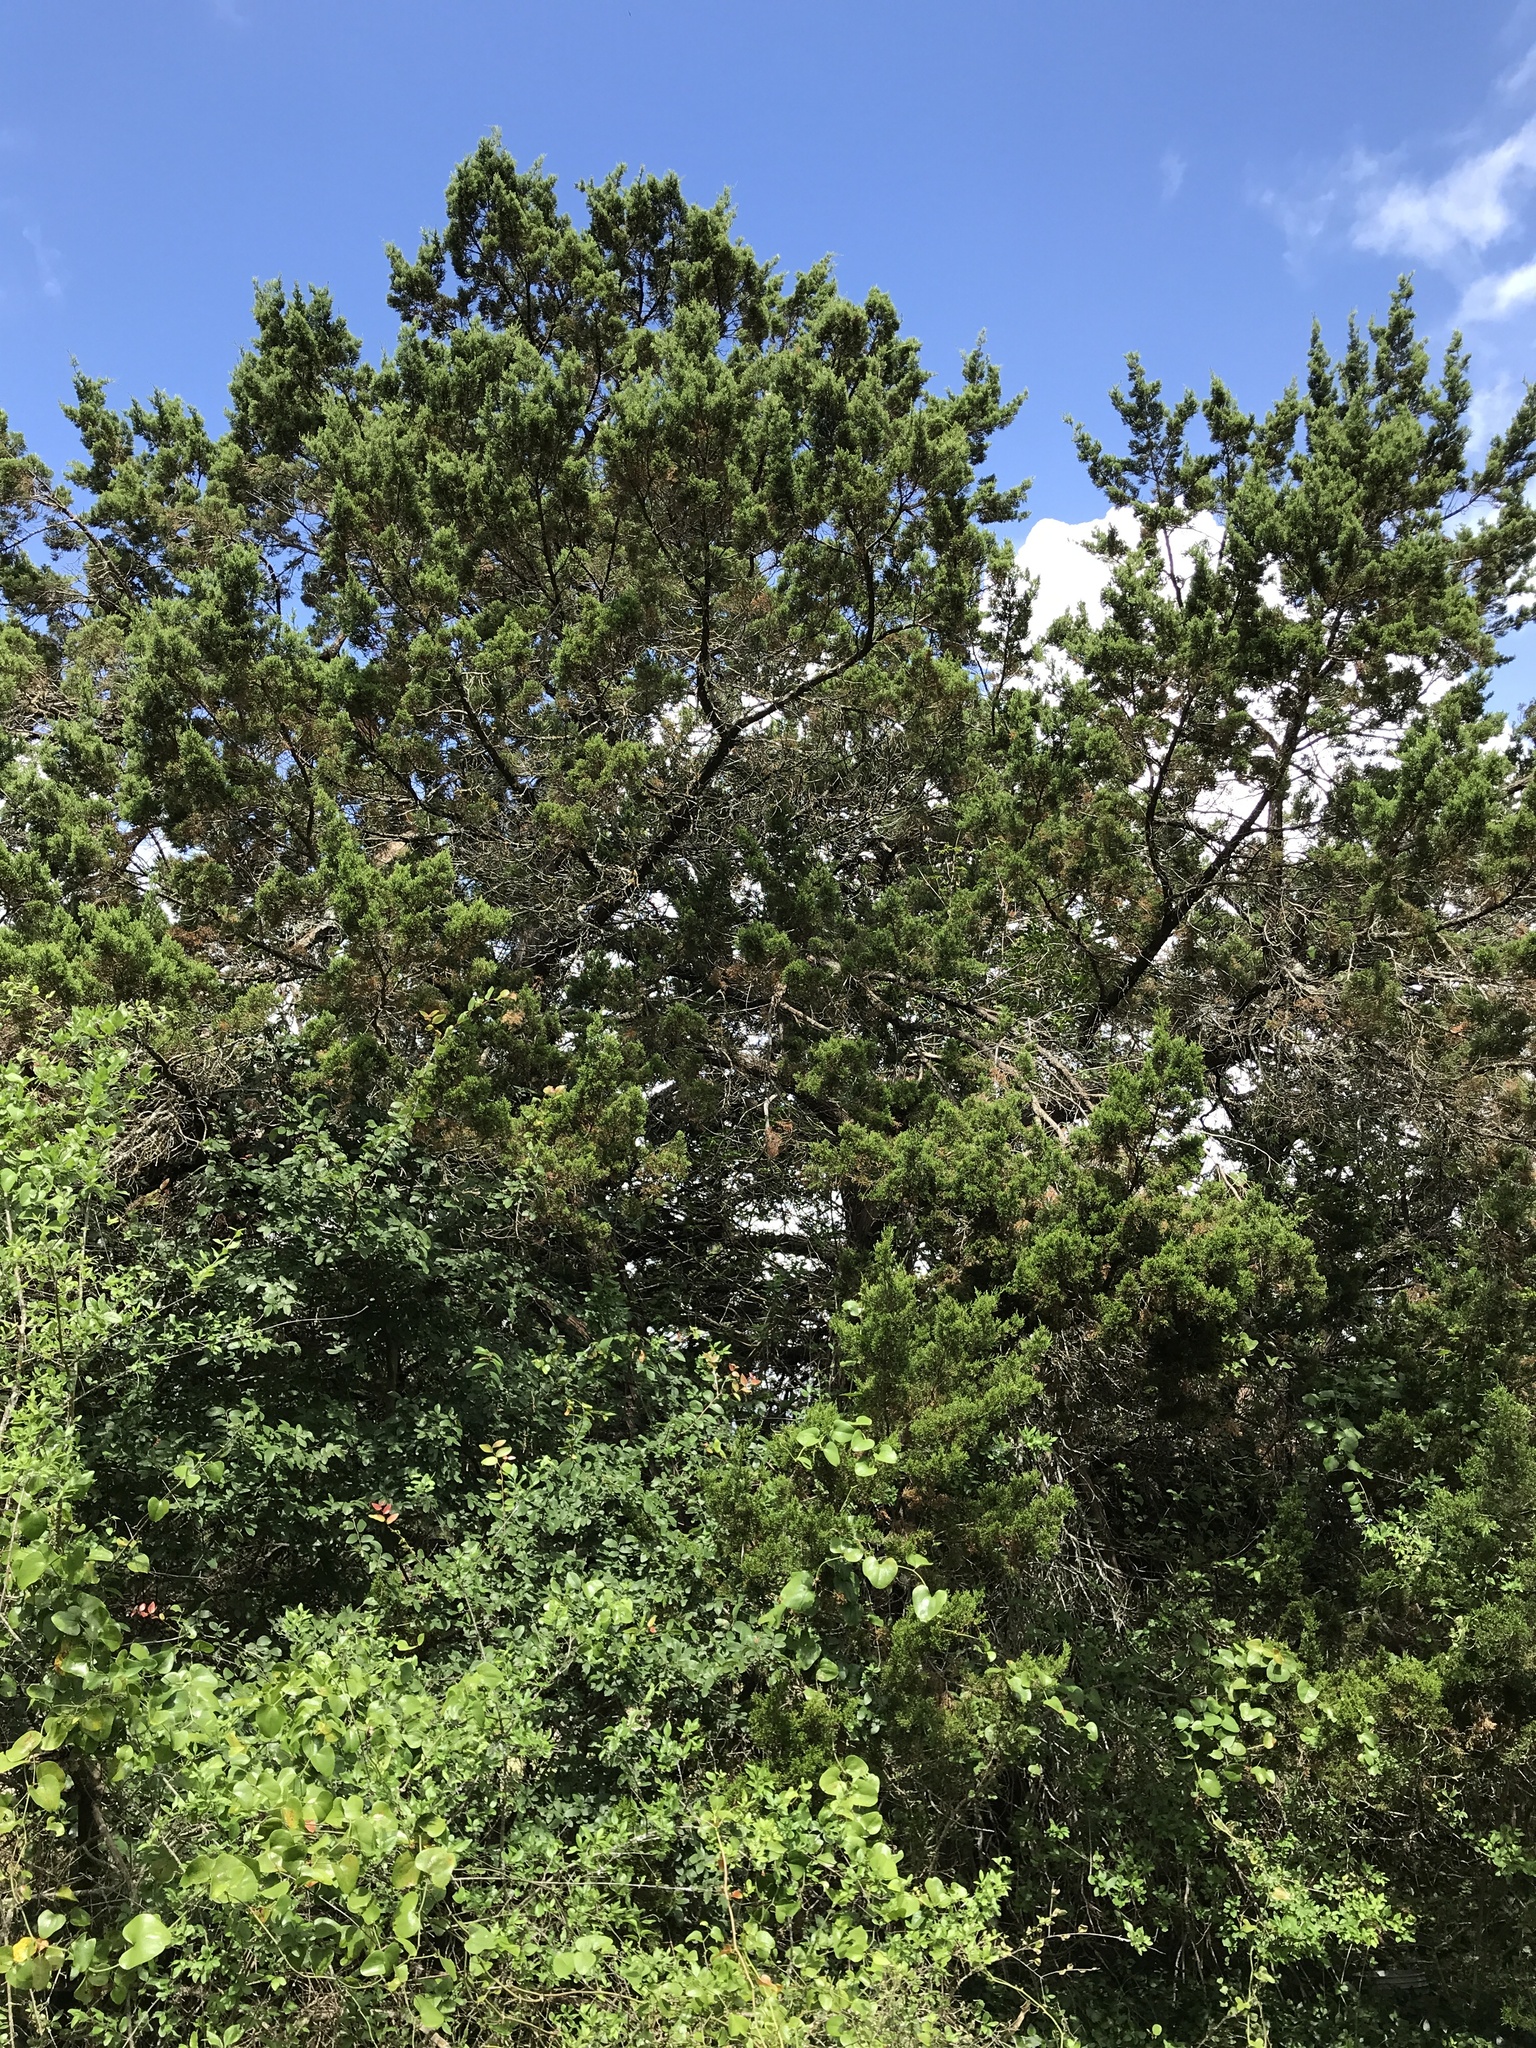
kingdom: Plantae
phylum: Tracheophyta
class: Pinopsida
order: Pinales
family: Cupressaceae
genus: Juniperus
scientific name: Juniperus ashei
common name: Mexican juniper
